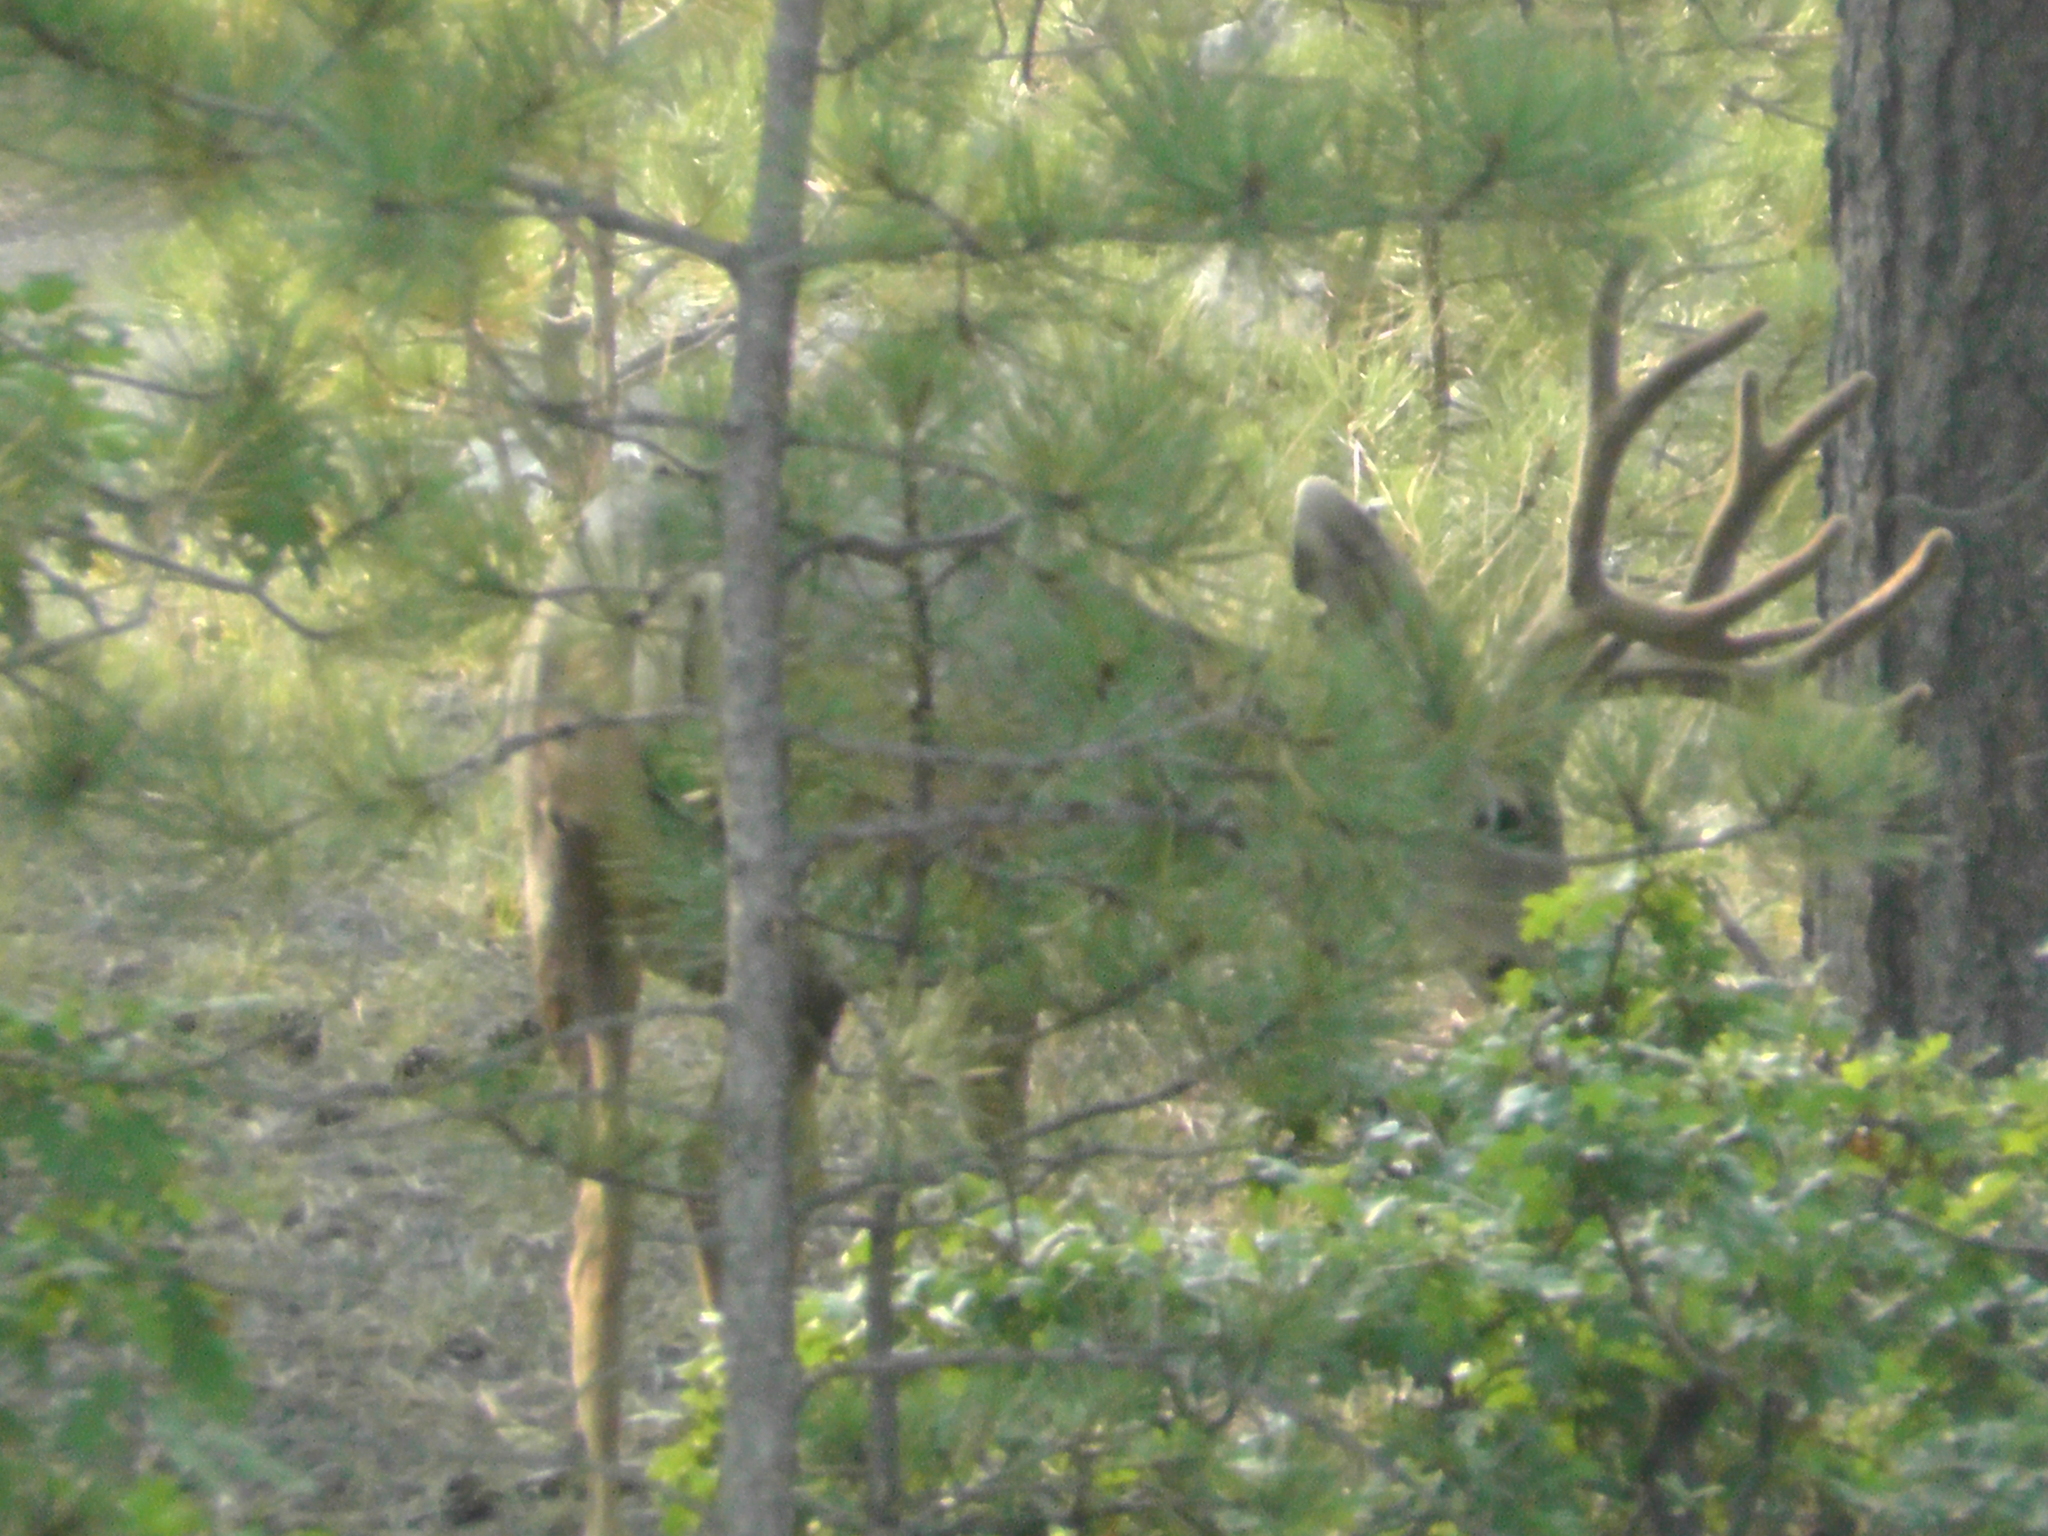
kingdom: Animalia
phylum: Chordata
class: Mammalia
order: Artiodactyla
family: Cervidae
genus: Odocoileus
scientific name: Odocoileus hemionus
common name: Mule deer
